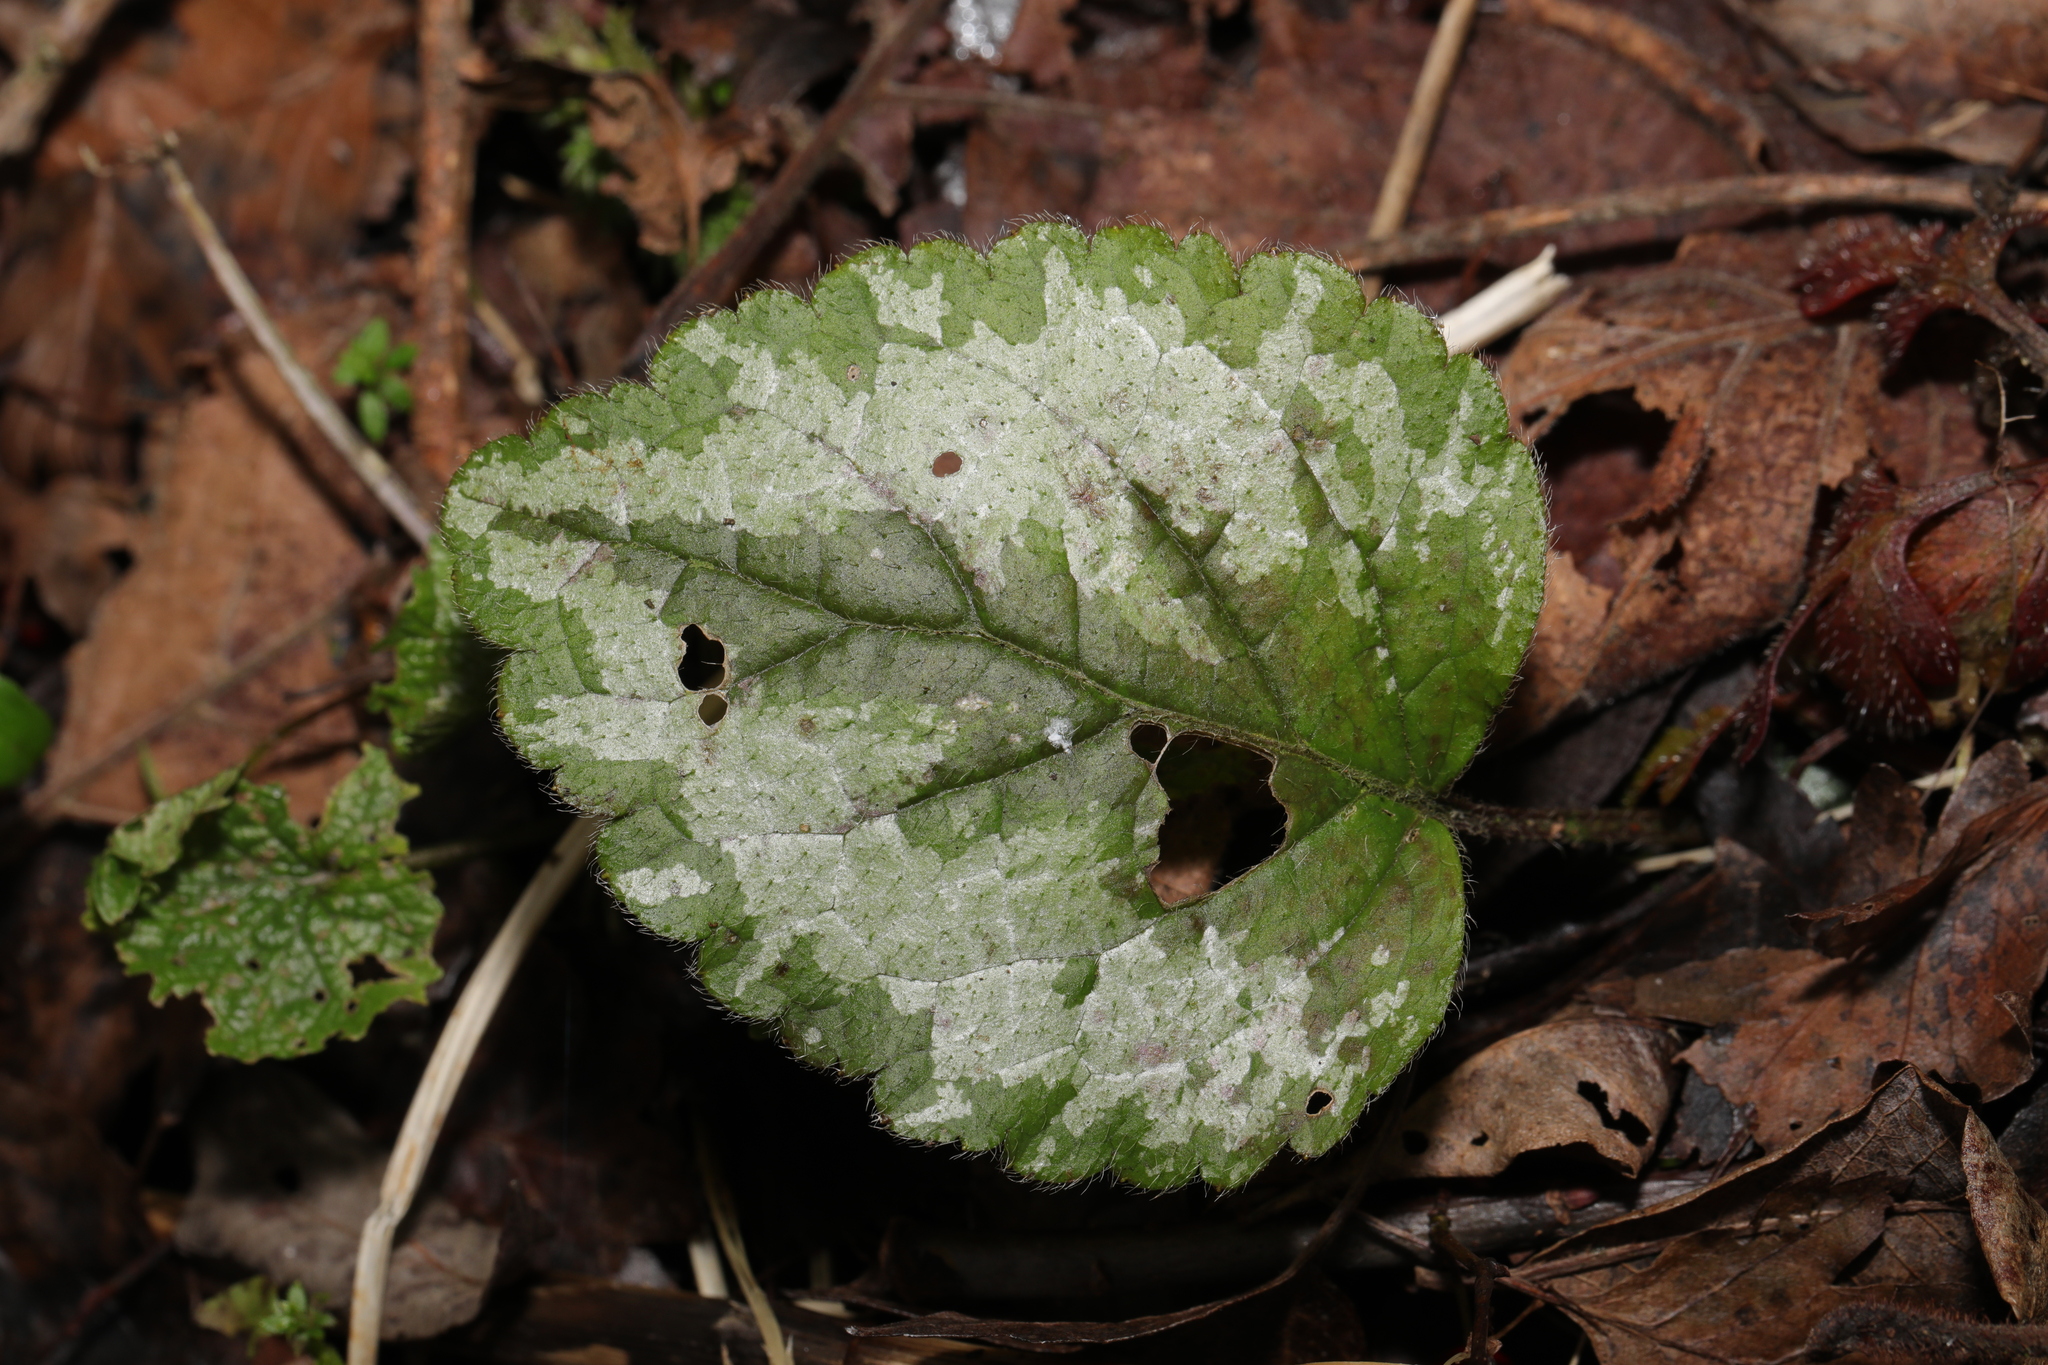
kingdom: Plantae
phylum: Tracheophyta
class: Magnoliopsida
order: Lamiales
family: Lamiaceae
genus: Lamium
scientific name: Lamium galeobdolon
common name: Yellow archangel
